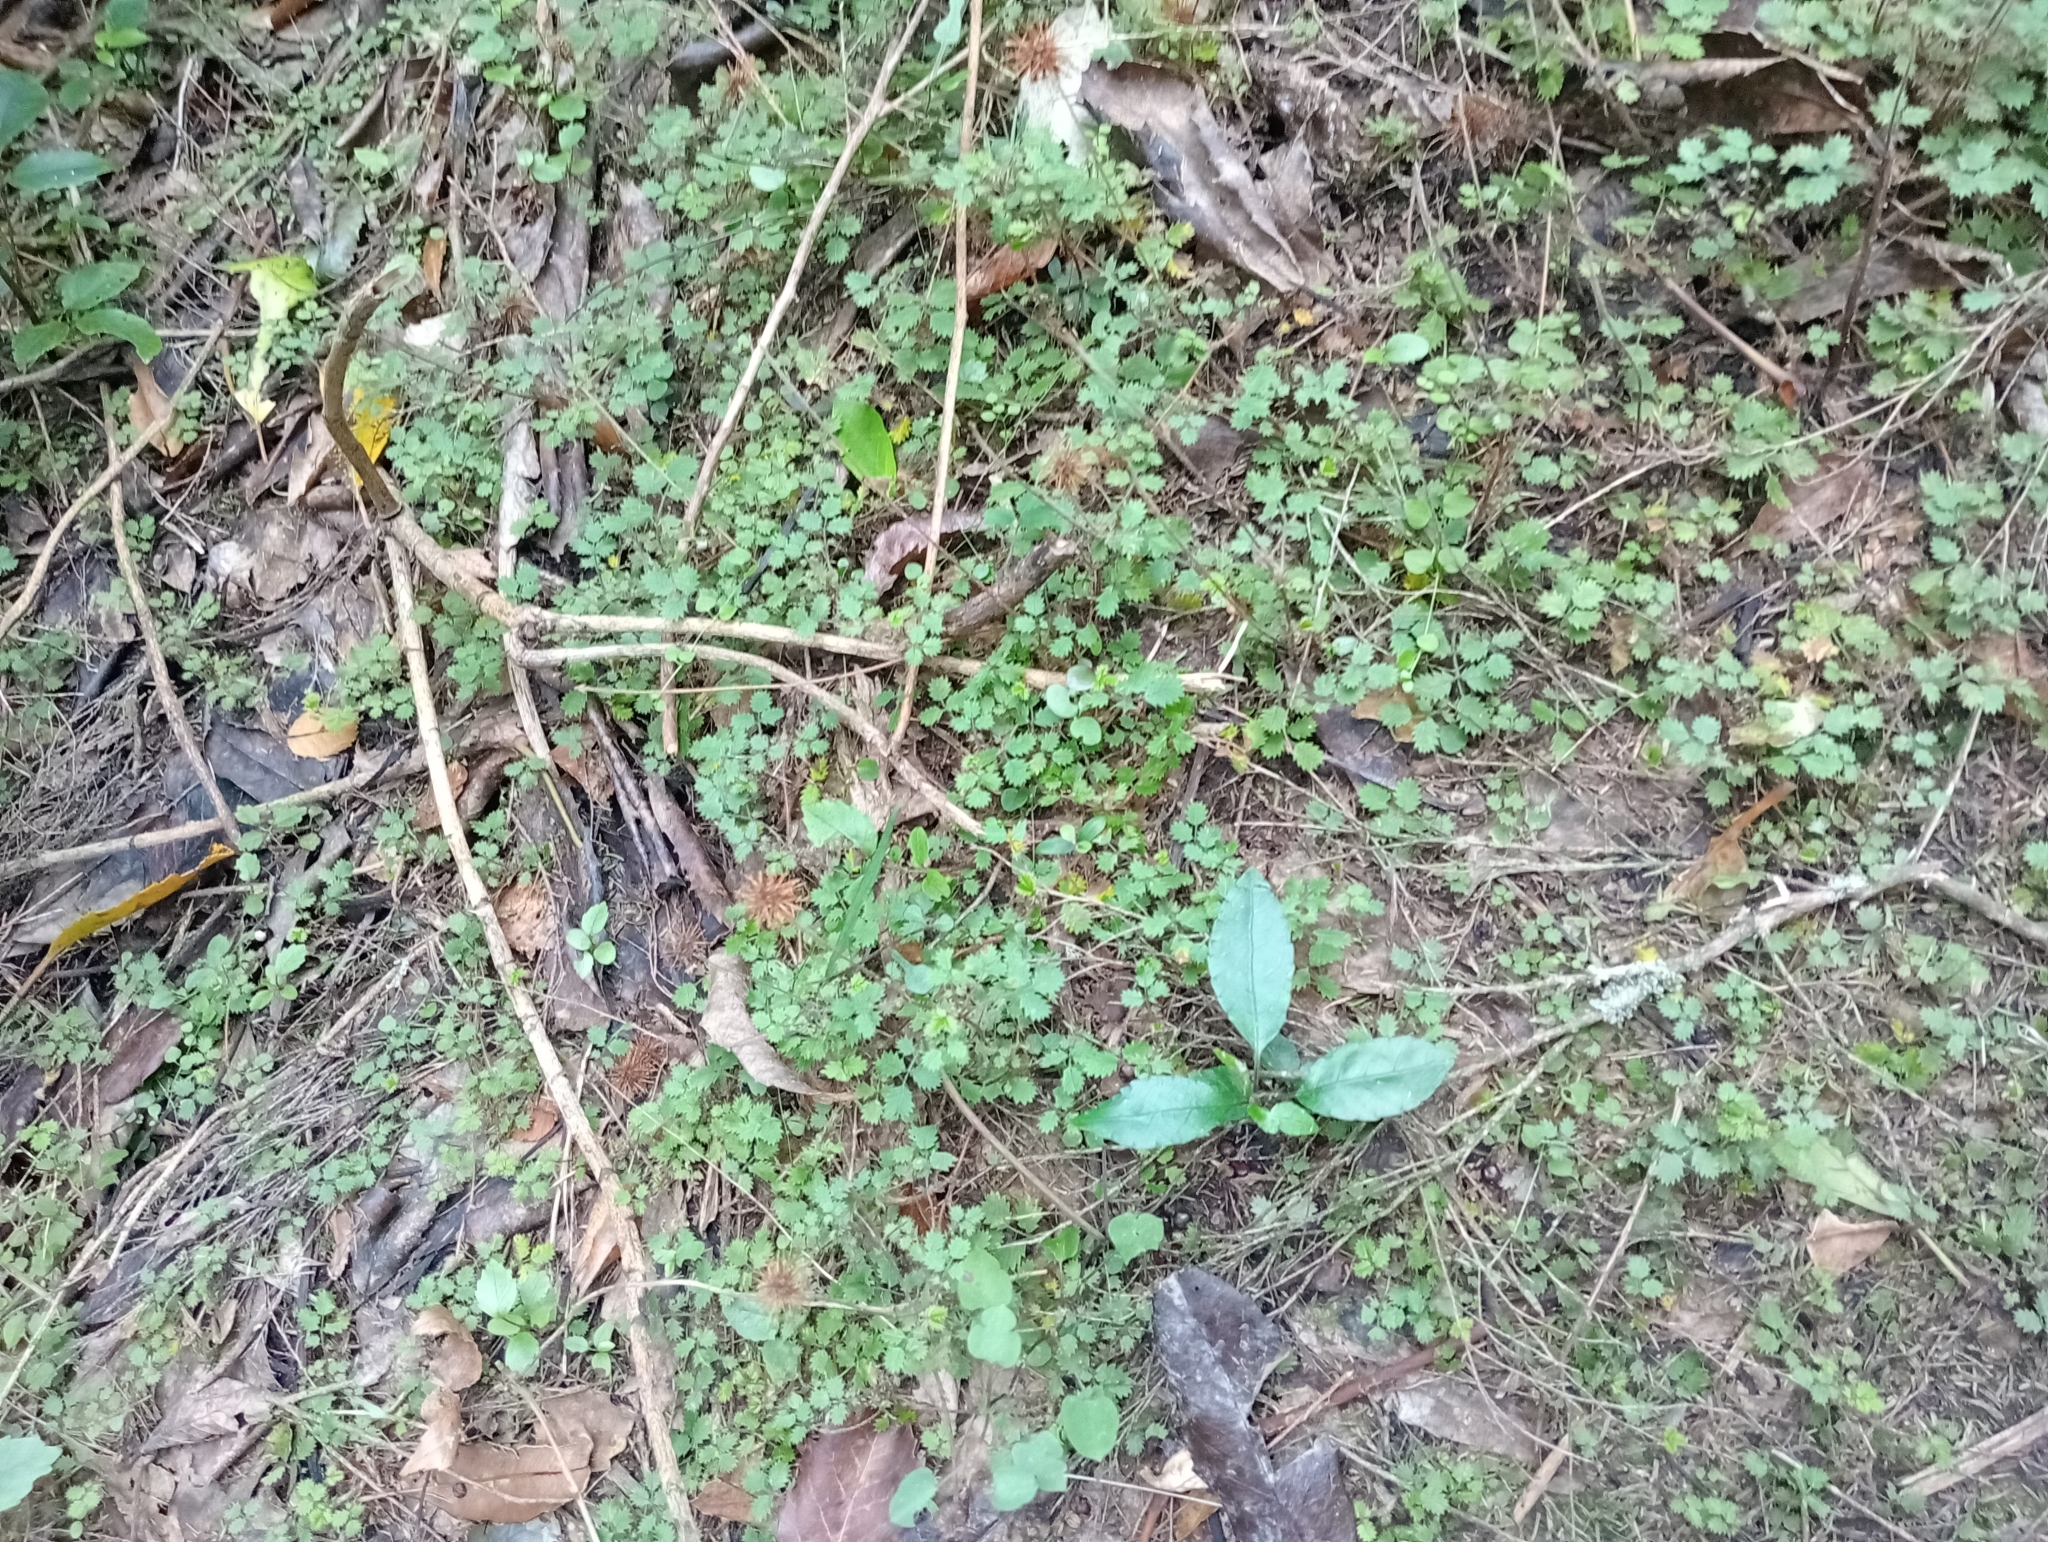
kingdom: Plantae
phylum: Tracheophyta
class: Magnoliopsida
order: Rosales
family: Rosaceae
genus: Acaena
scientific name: Acaena juvenca
